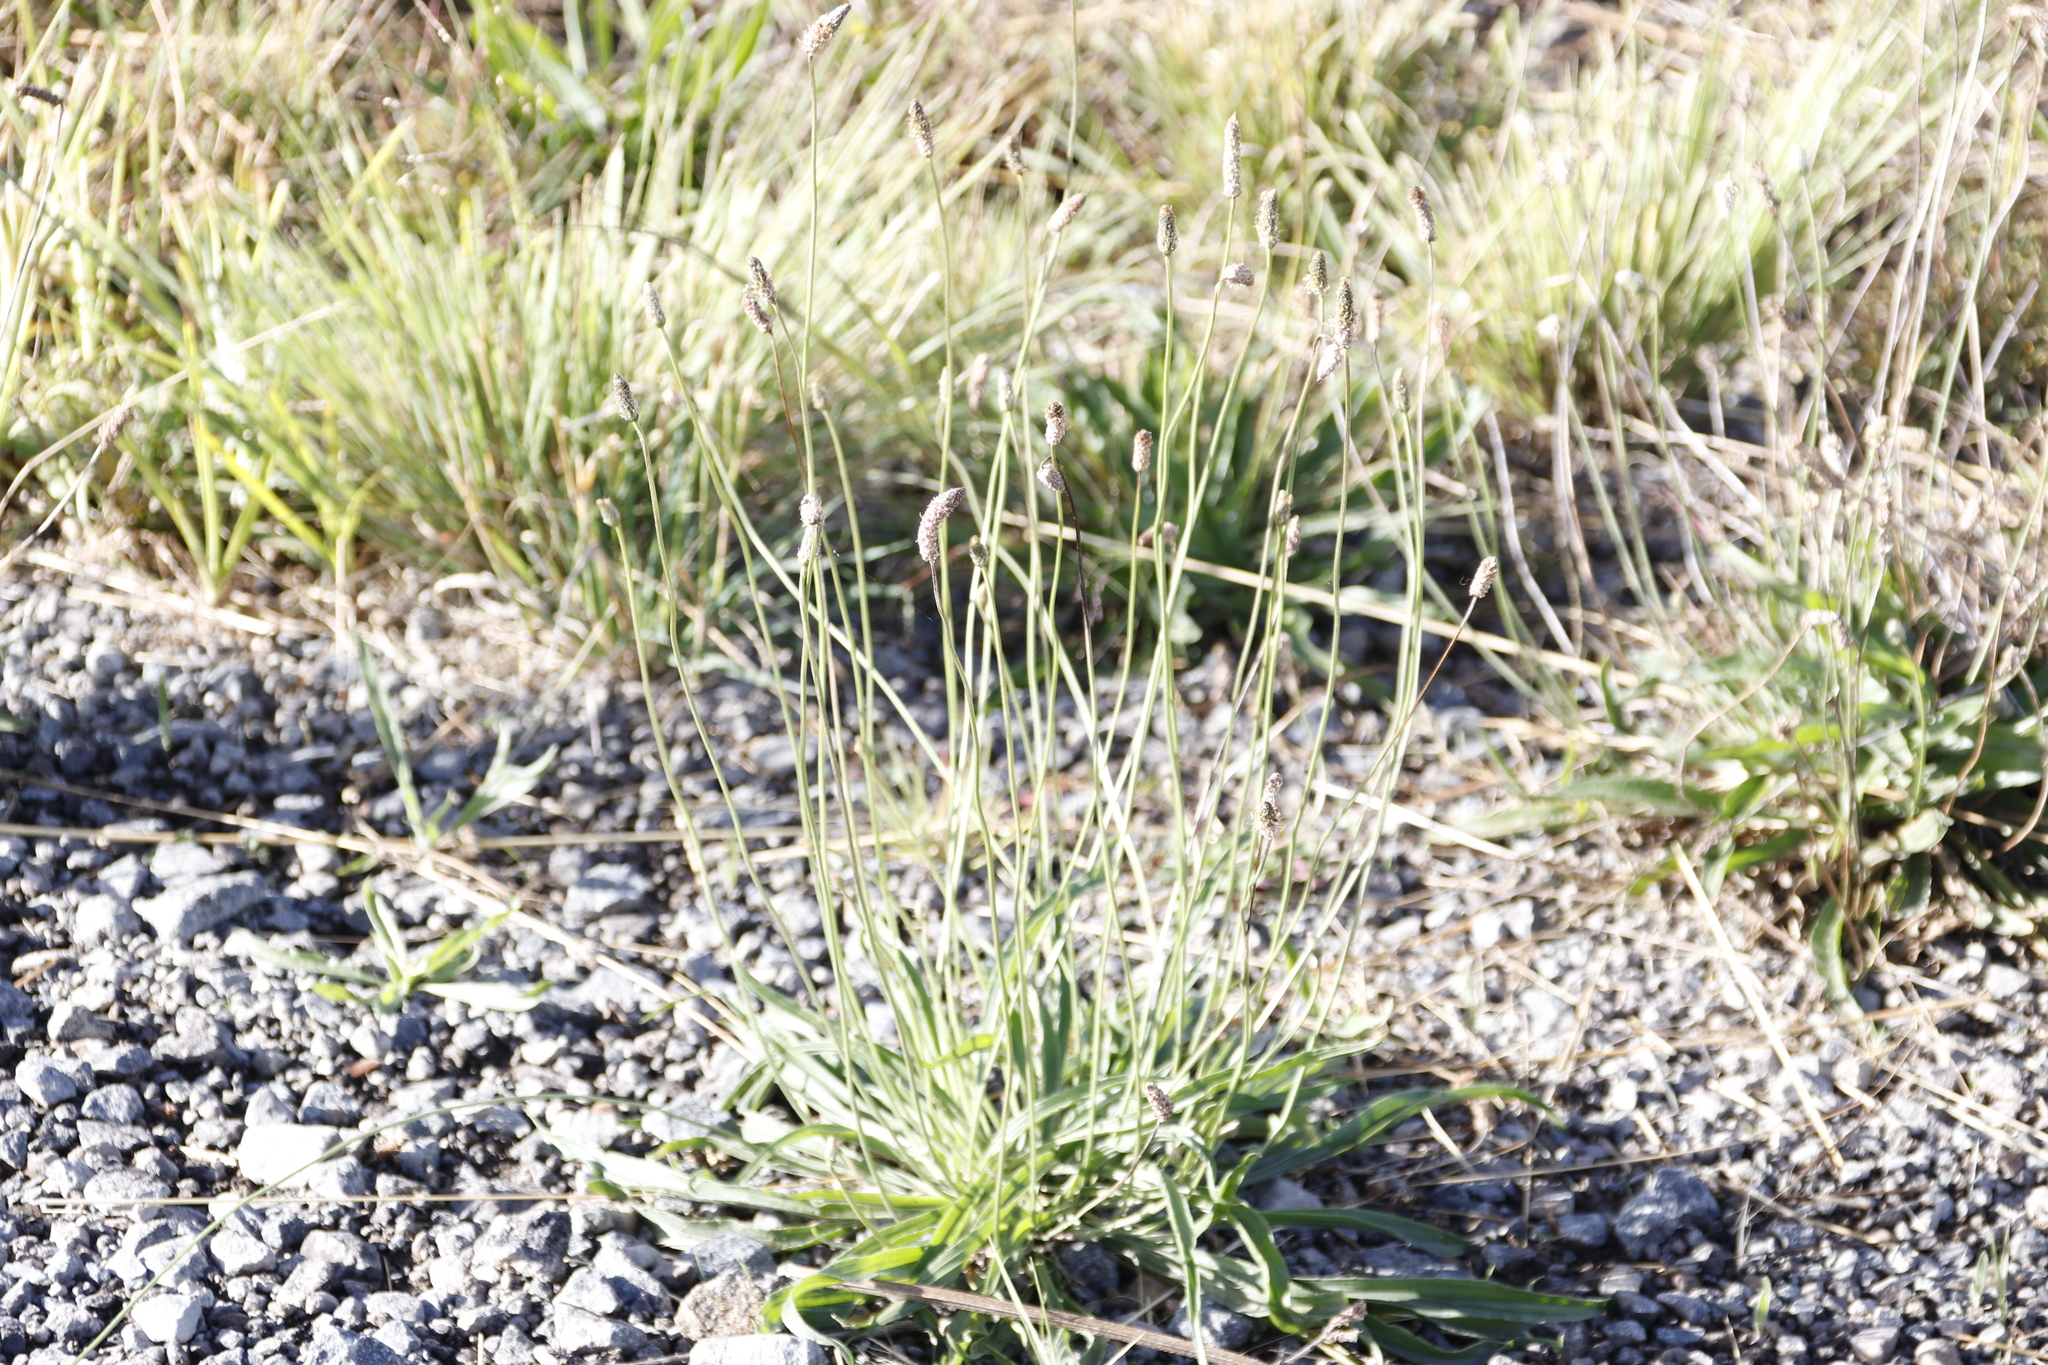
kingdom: Plantae
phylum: Tracheophyta
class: Magnoliopsida
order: Lamiales
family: Plantaginaceae
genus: Plantago
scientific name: Plantago lanceolata
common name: Ribwort plantain
